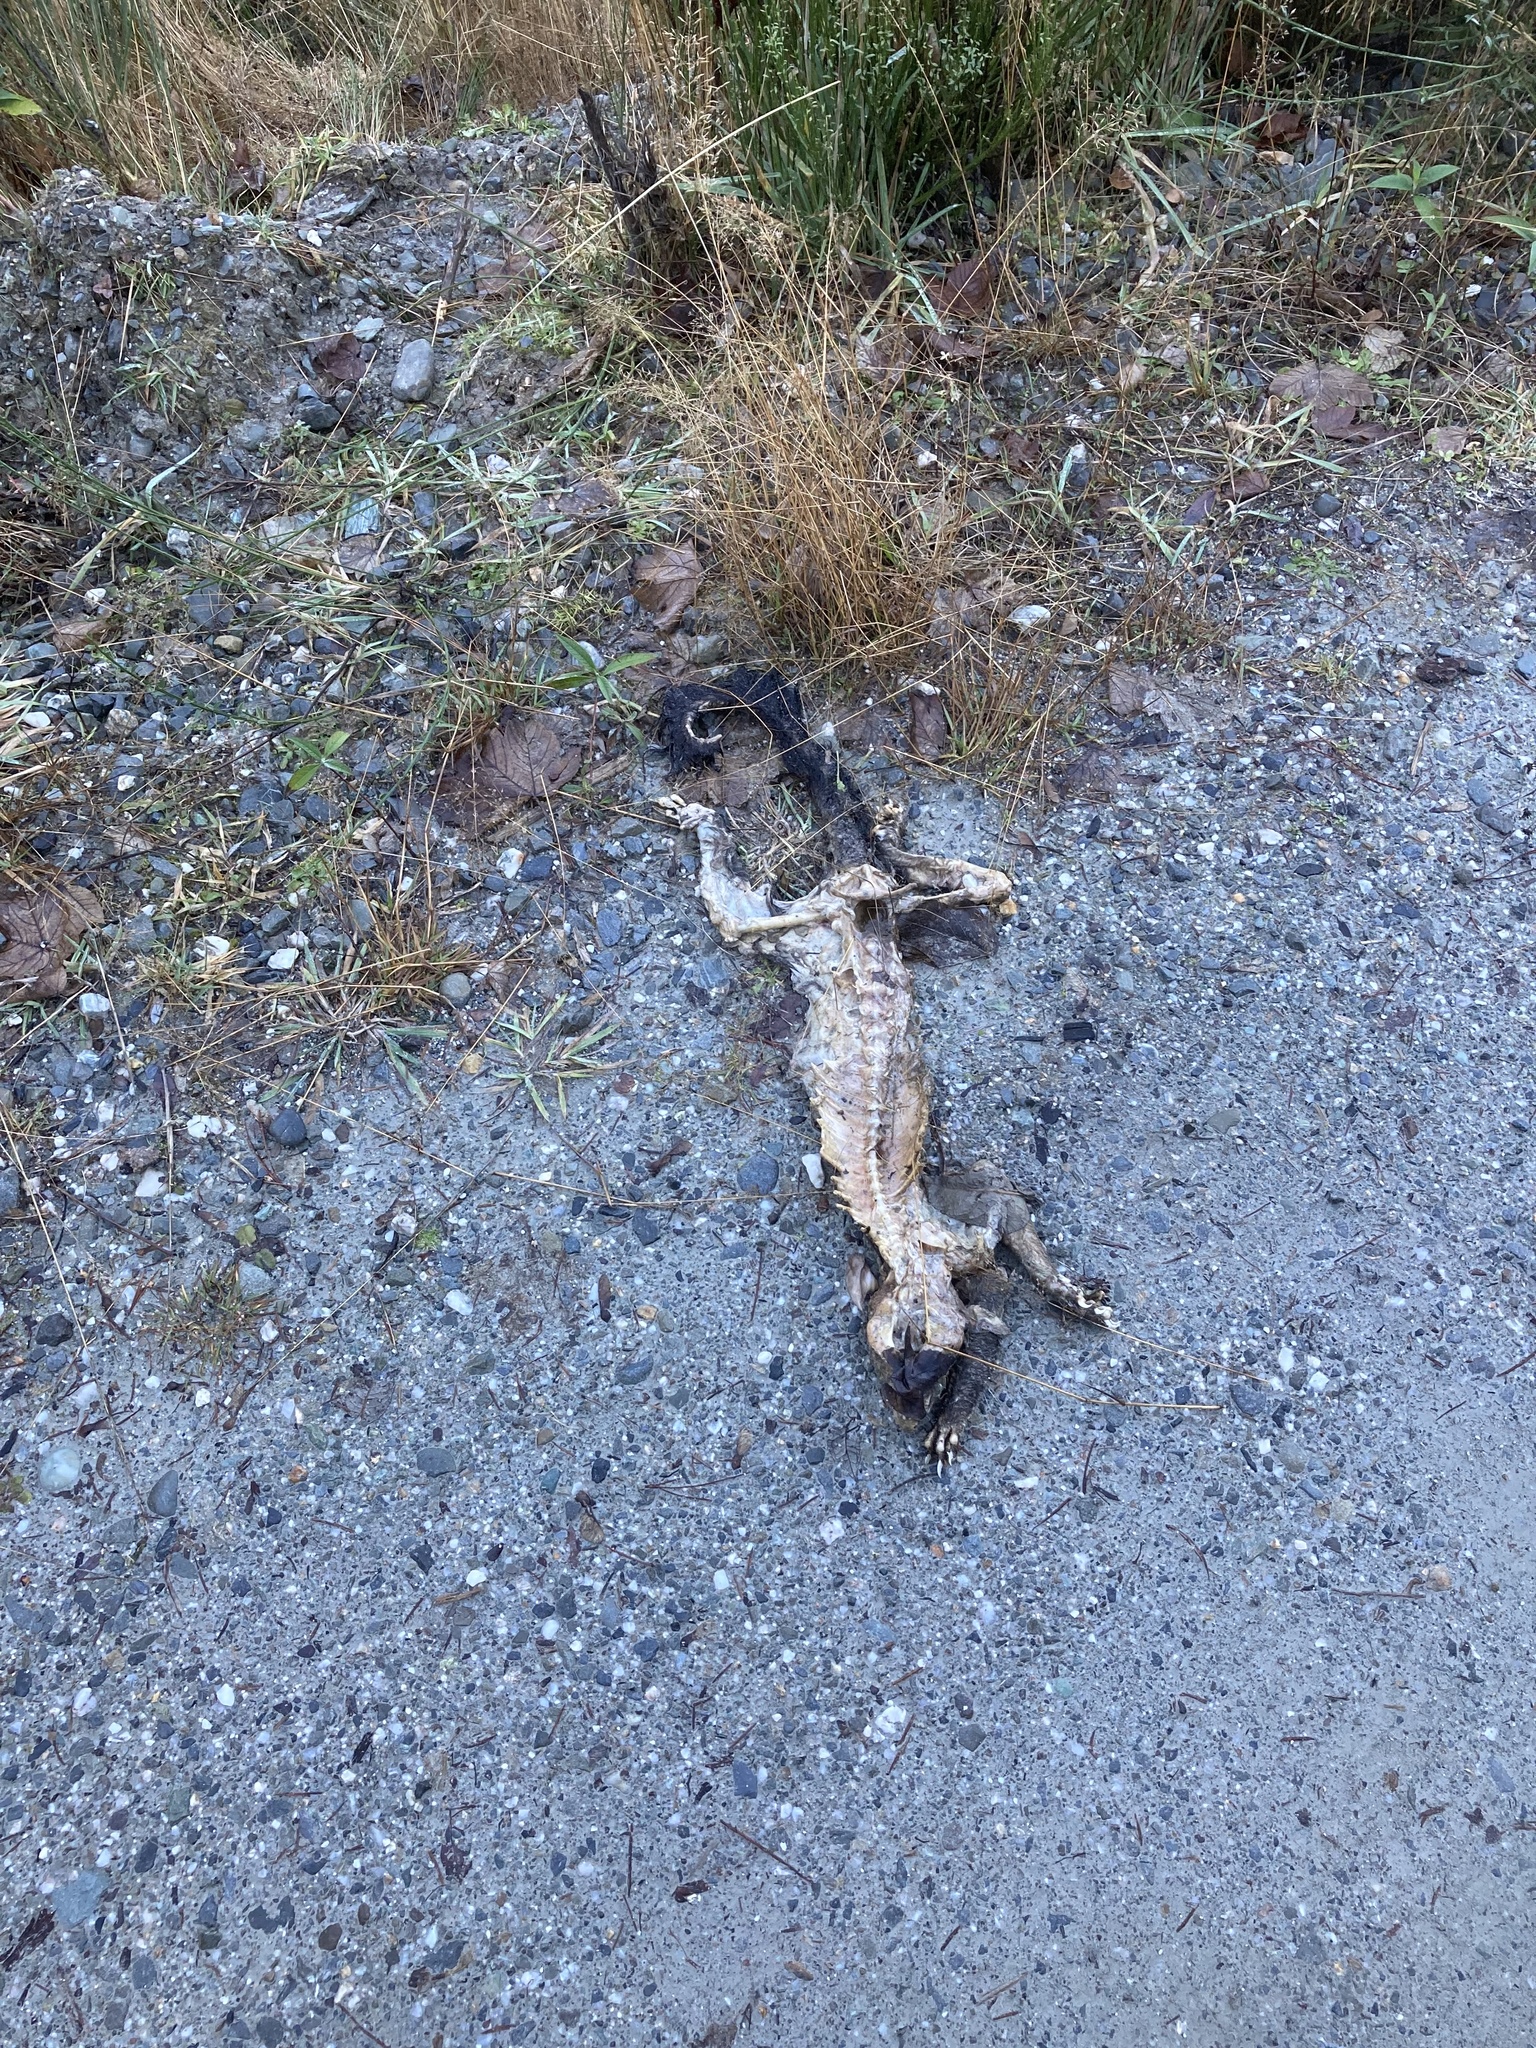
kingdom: Animalia
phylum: Chordata
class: Mammalia
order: Diprotodontia
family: Phalangeridae
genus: Trichosurus
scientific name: Trichosurus vulpecula
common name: Common brushtail
